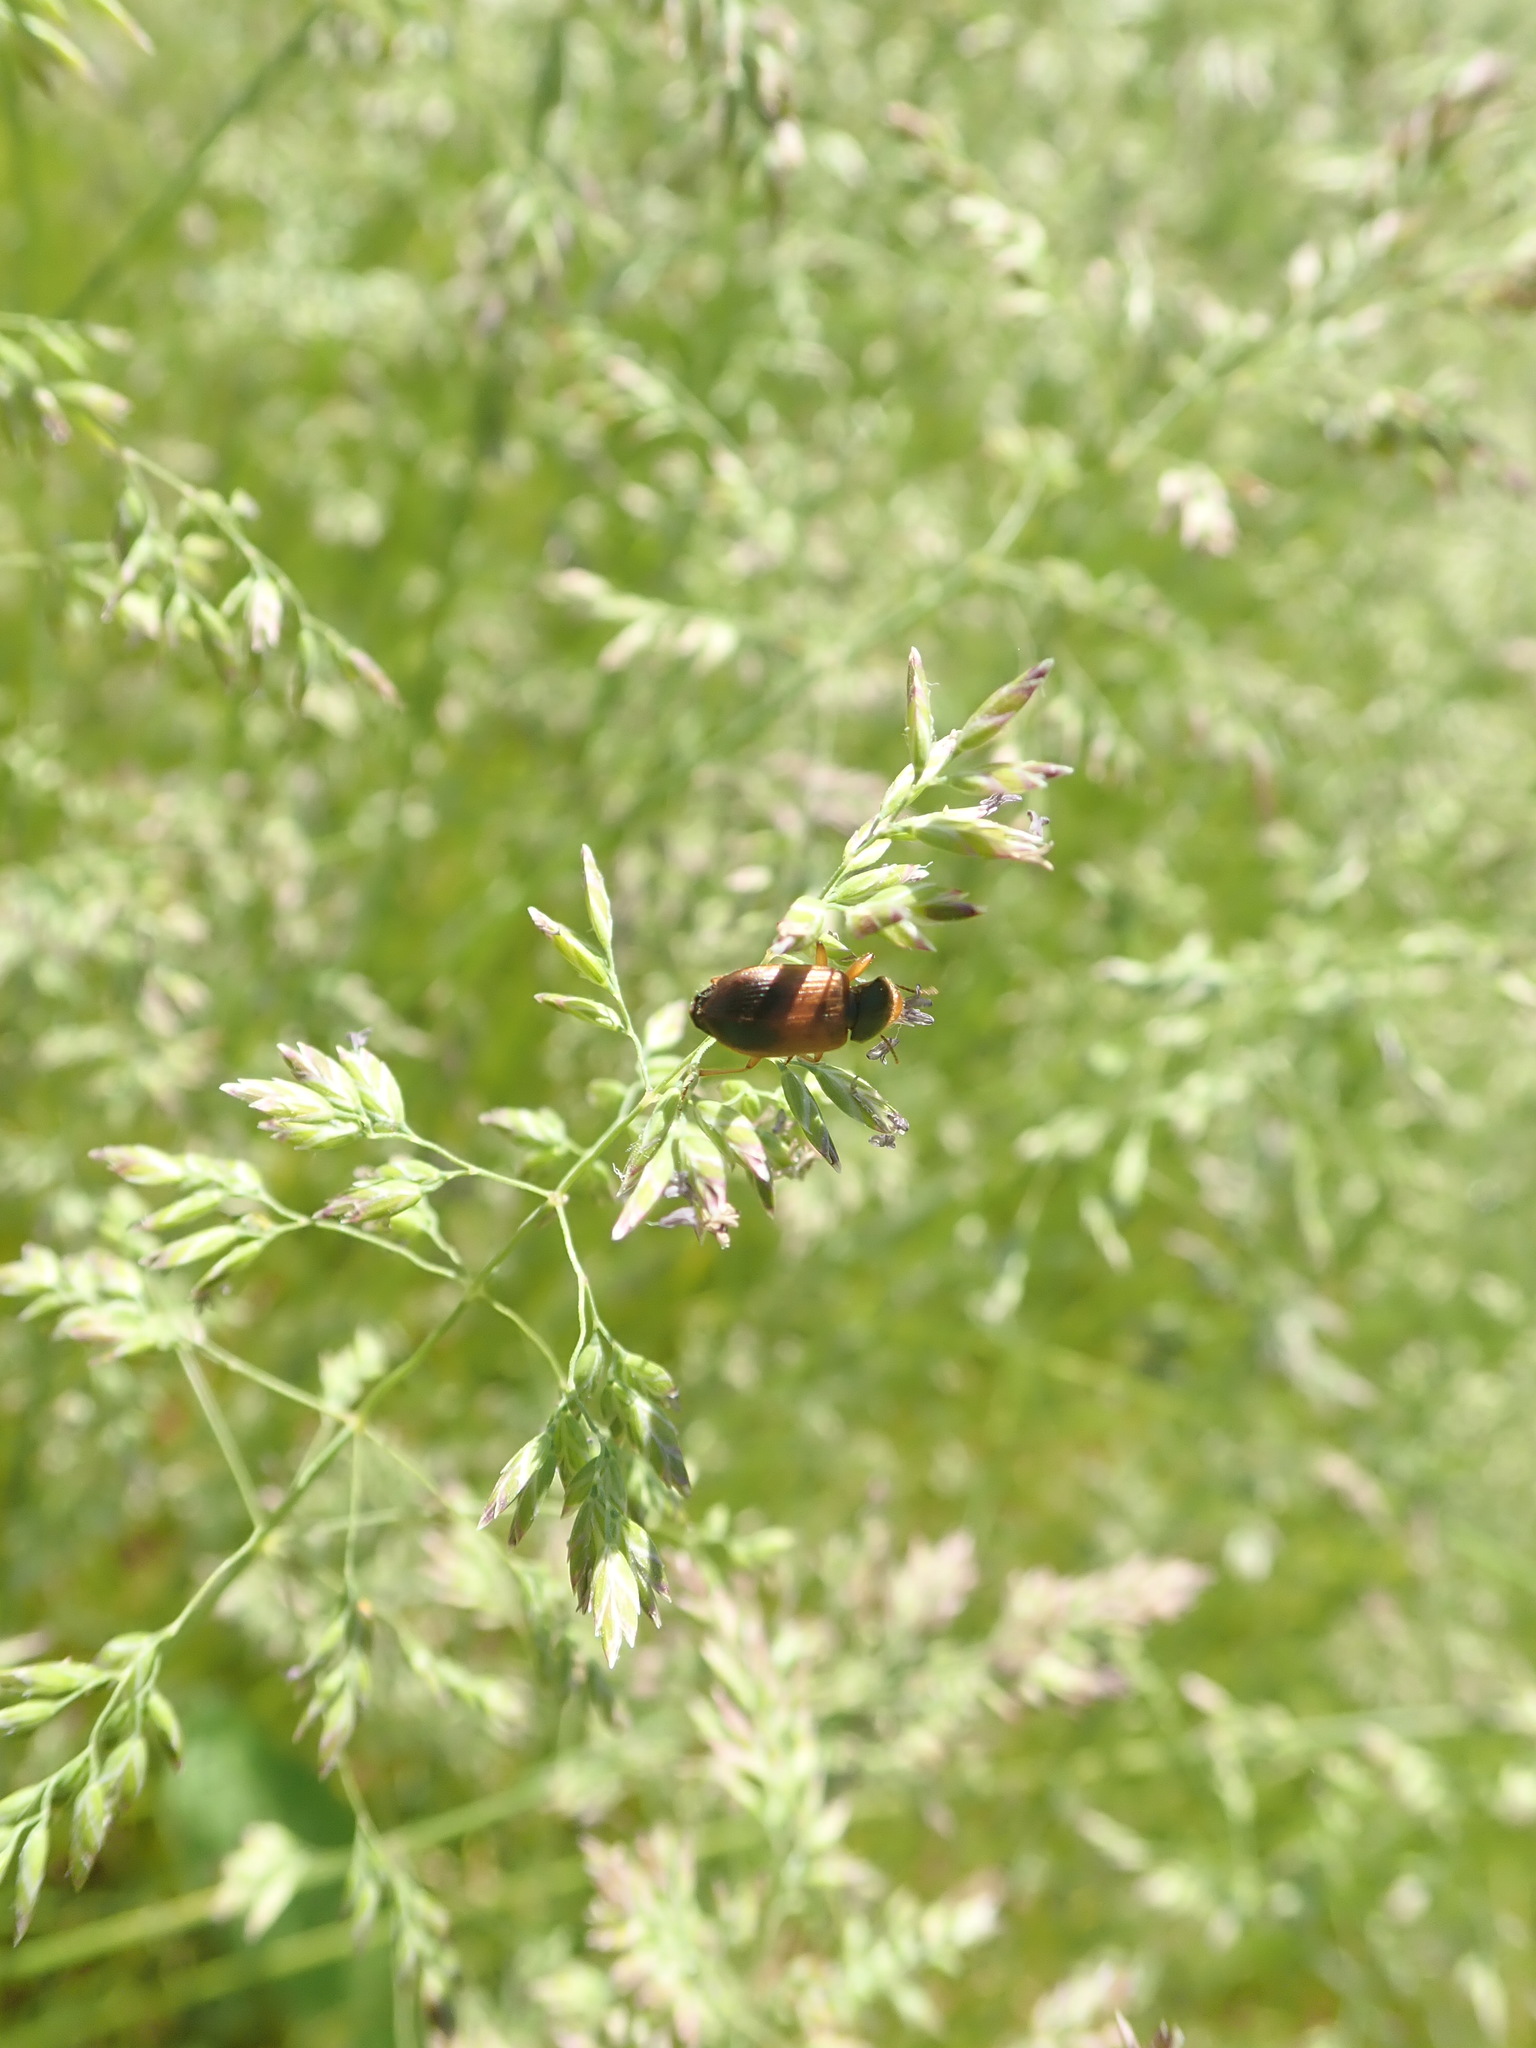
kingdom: Animalia
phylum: Arthropoda
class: Insecta
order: Coleoptera
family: Carabidae
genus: Diachromus
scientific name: Diachromus germanus
